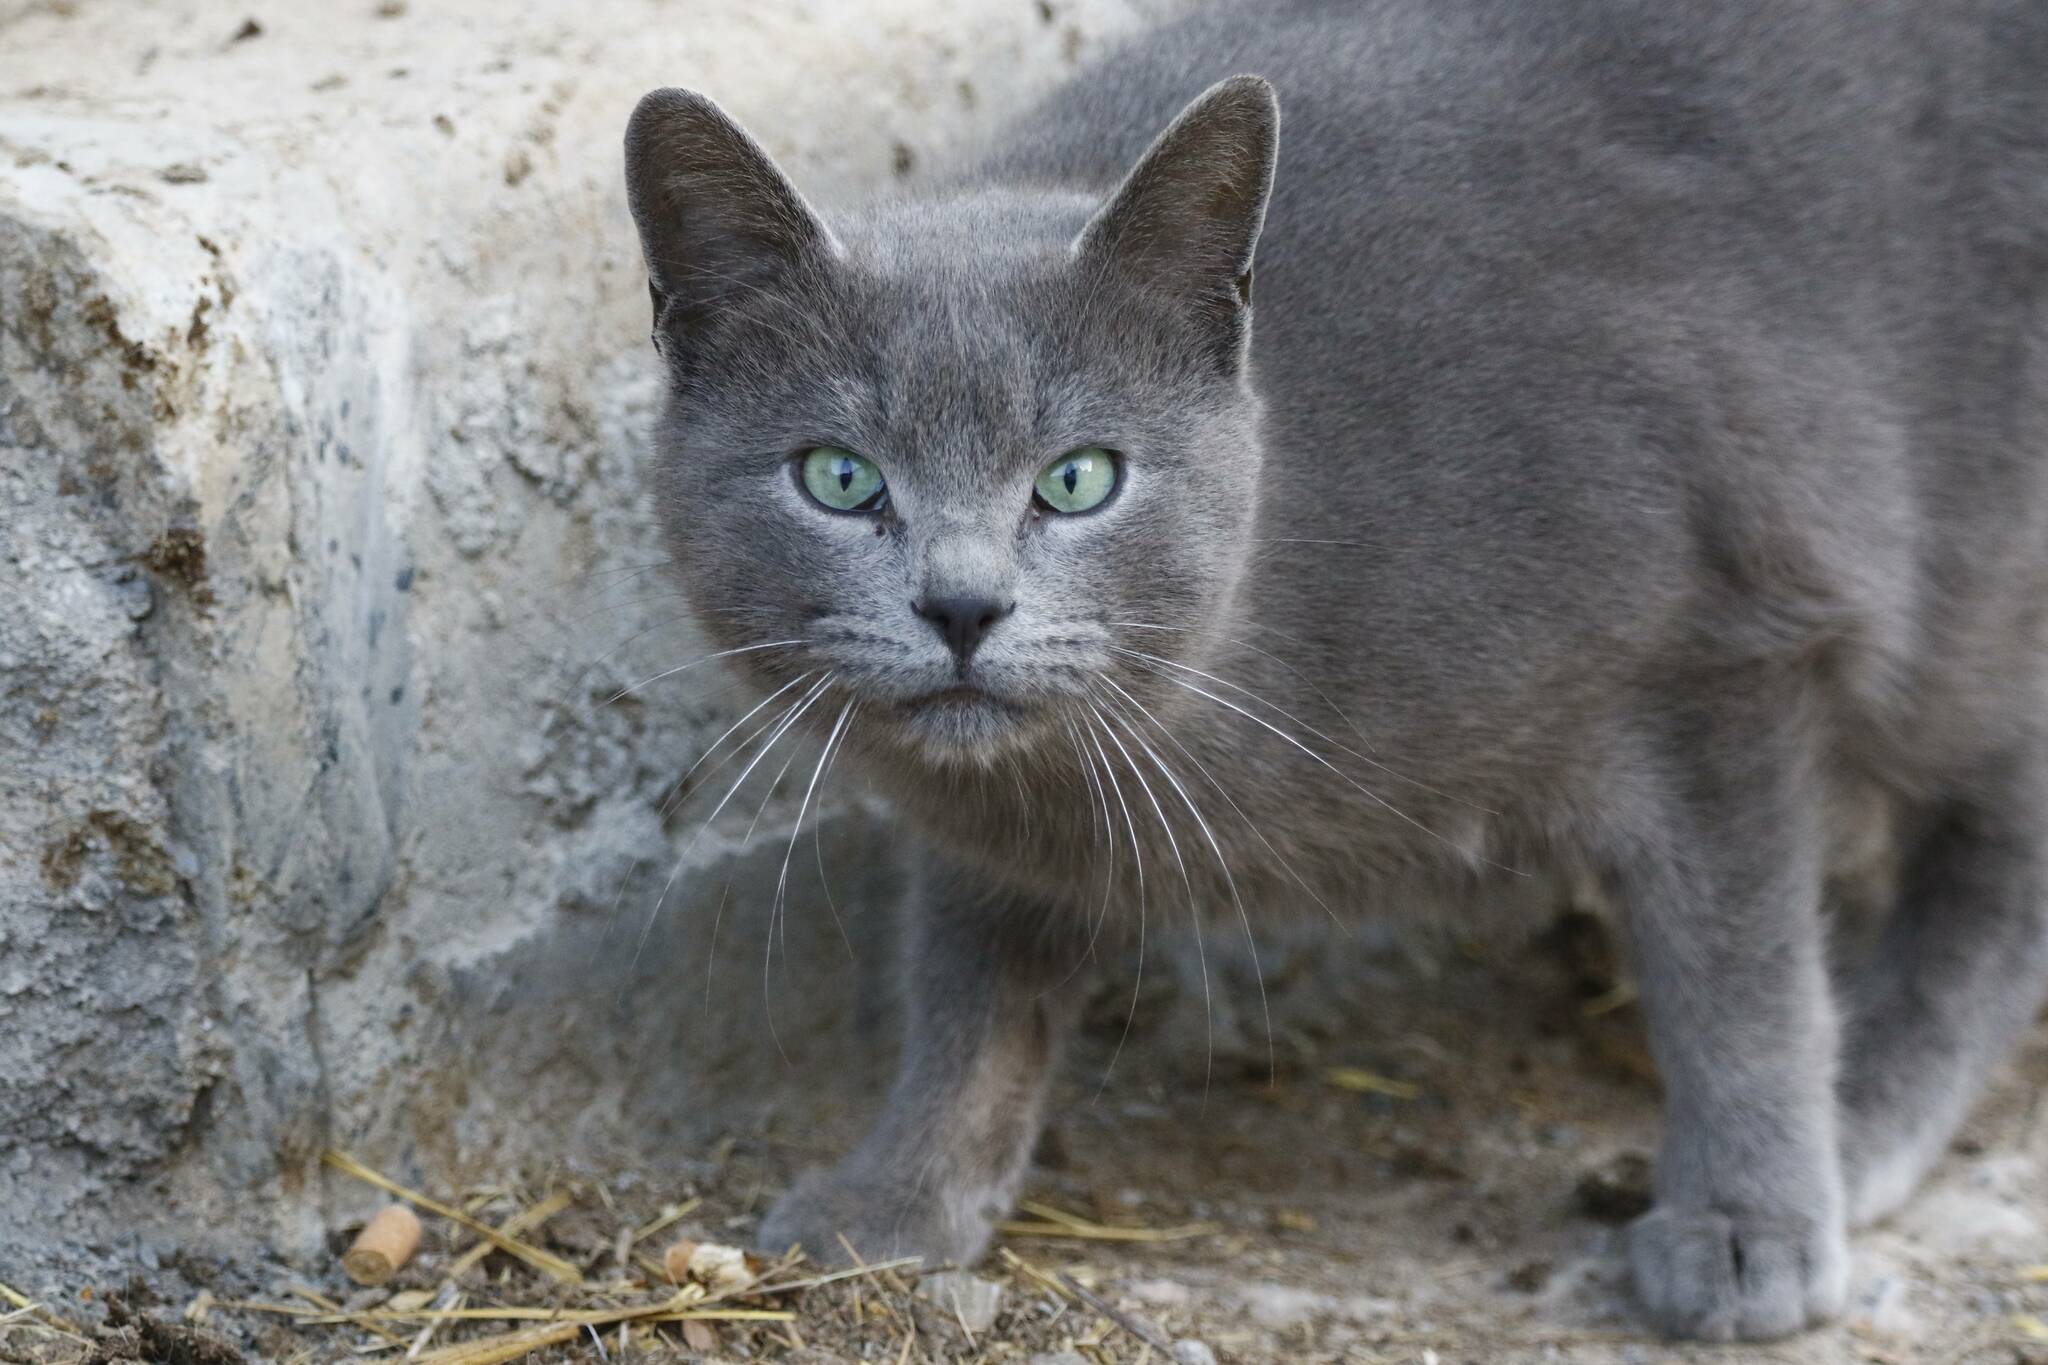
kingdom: Animalia
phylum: Chordata
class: Mammalia
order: Carnivora
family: Felidae
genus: Felis
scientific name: Felis catus
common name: Domestic cat
